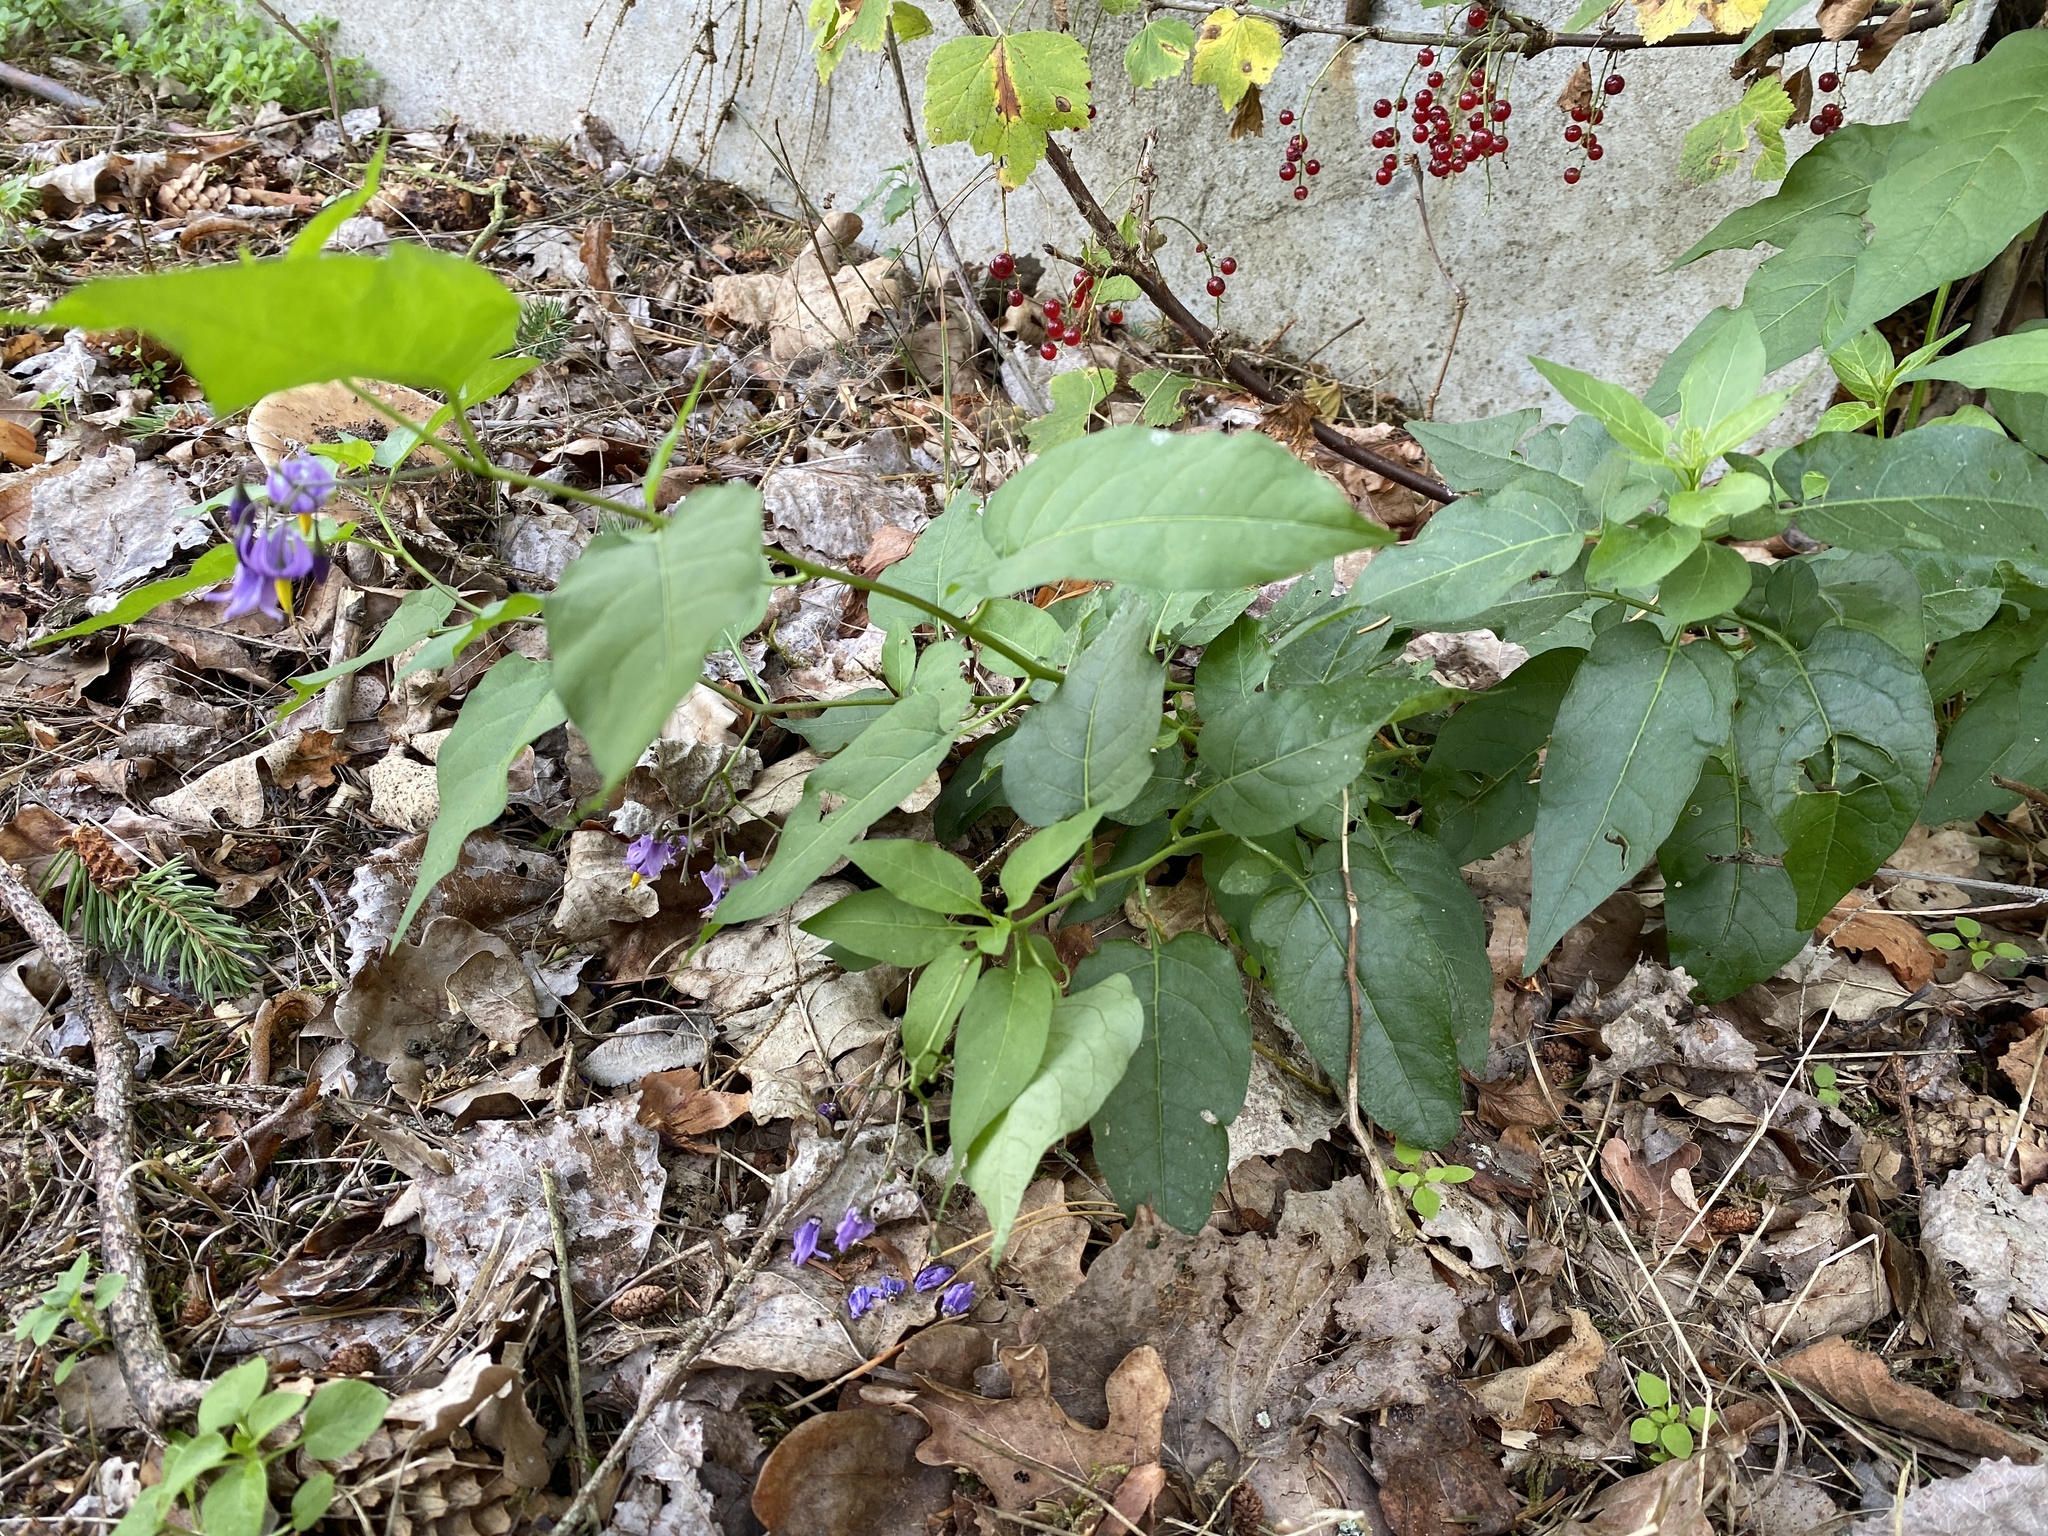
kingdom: Plantae
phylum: Tracheophyta
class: Magnoliopsida
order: Solanales
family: Solanaceae
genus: Solanum
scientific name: Solanum dulcamara
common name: Climbing nightshade
